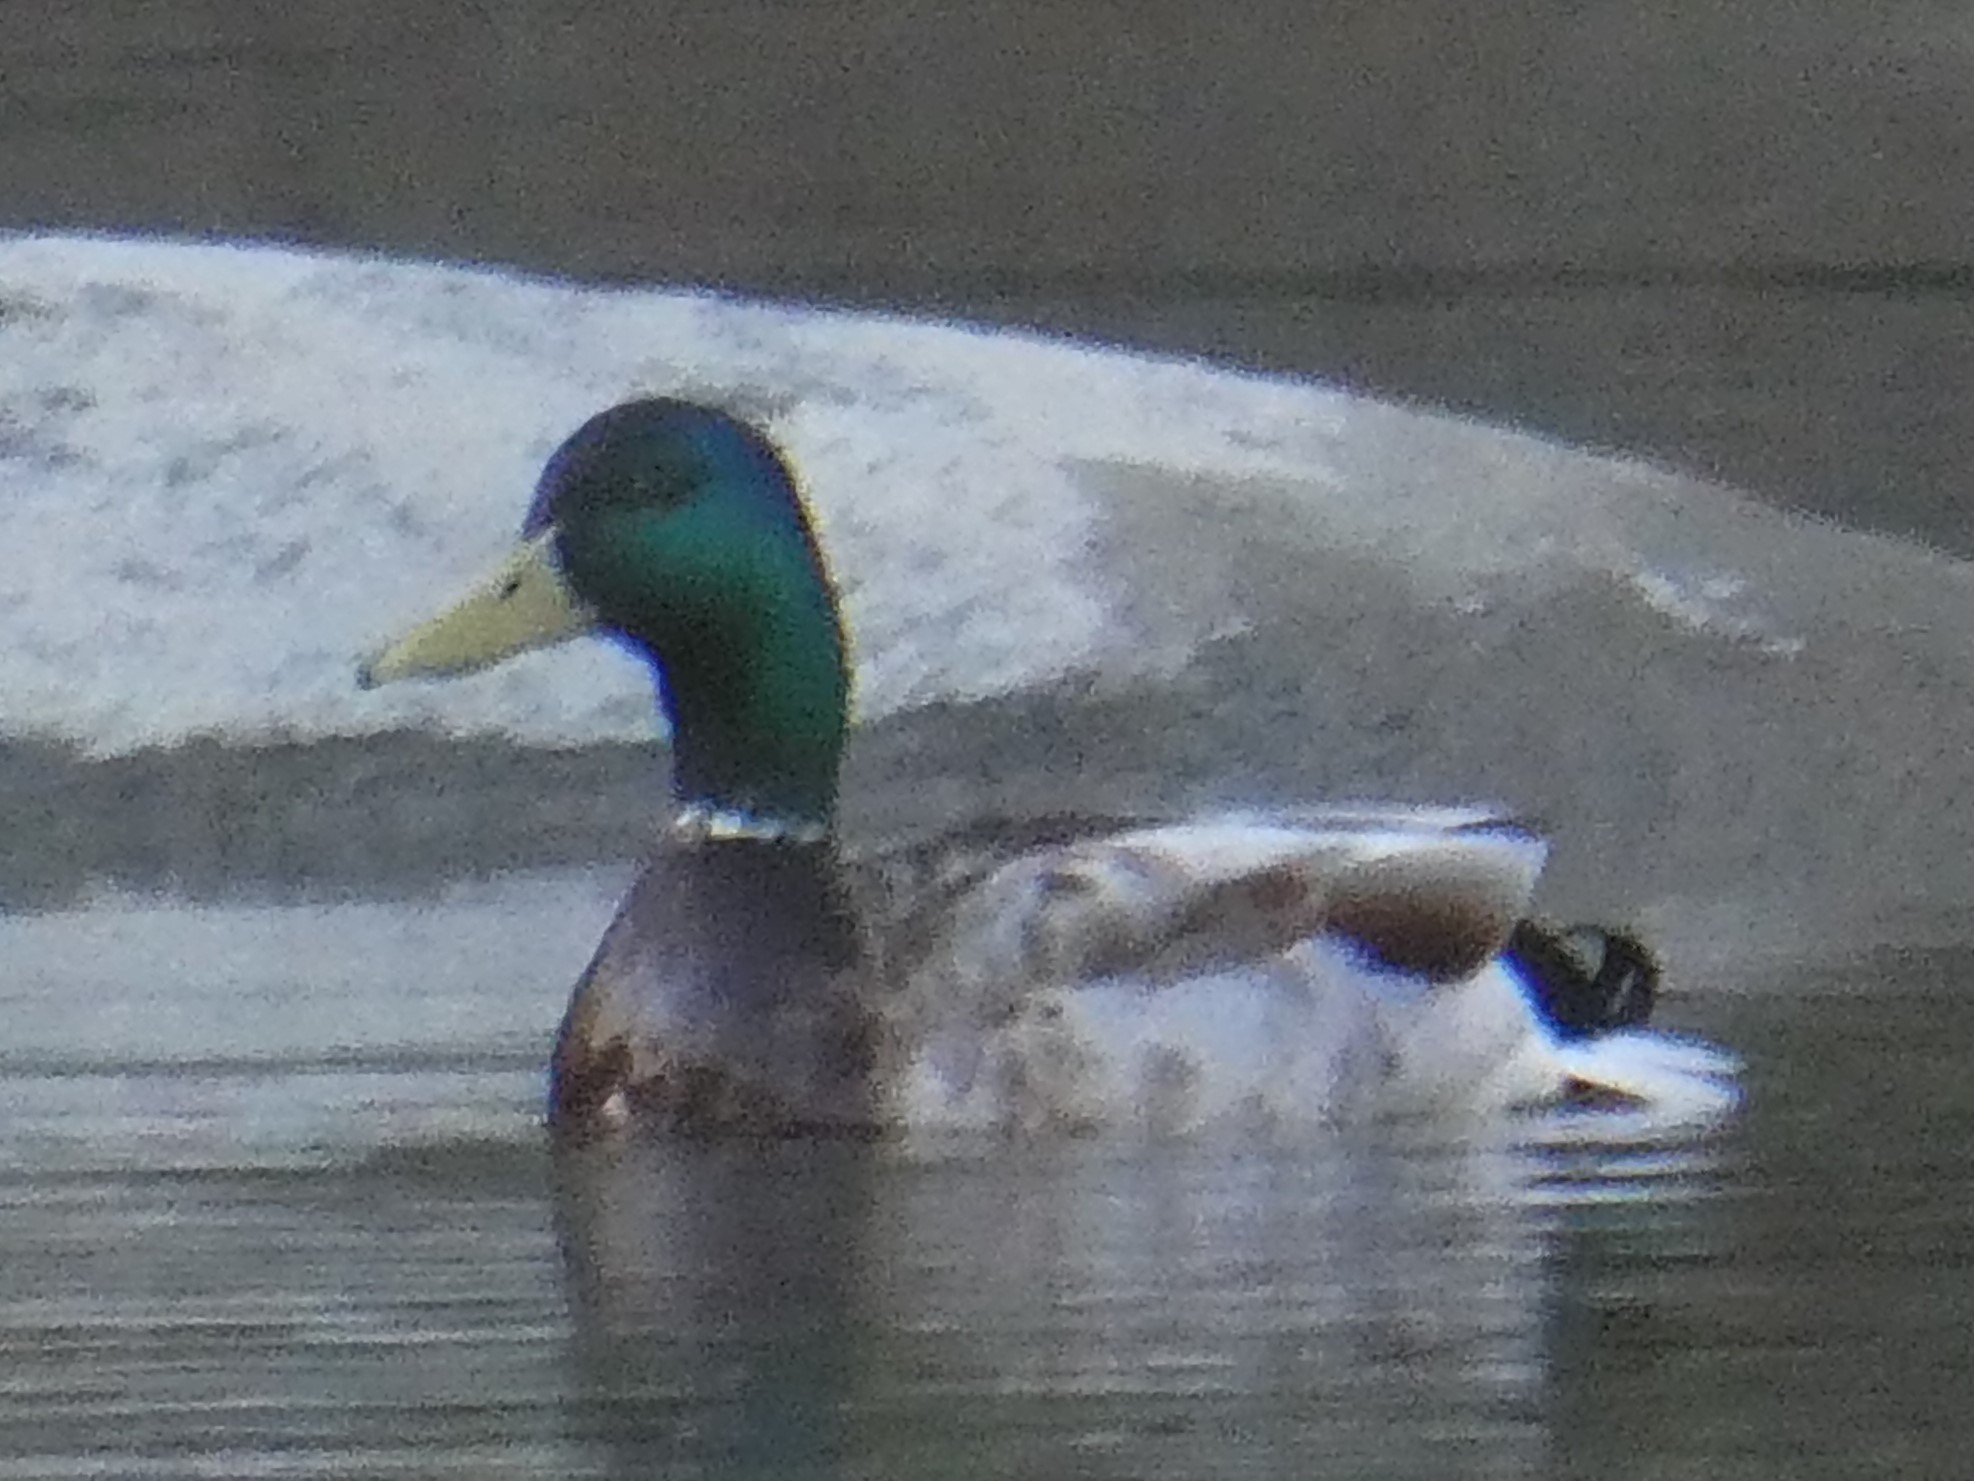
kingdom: Animalia
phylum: Chordata
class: Aves
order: Anseriformes
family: Anatidae
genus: Anas
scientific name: Anas platyrhynchos
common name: Mallard
